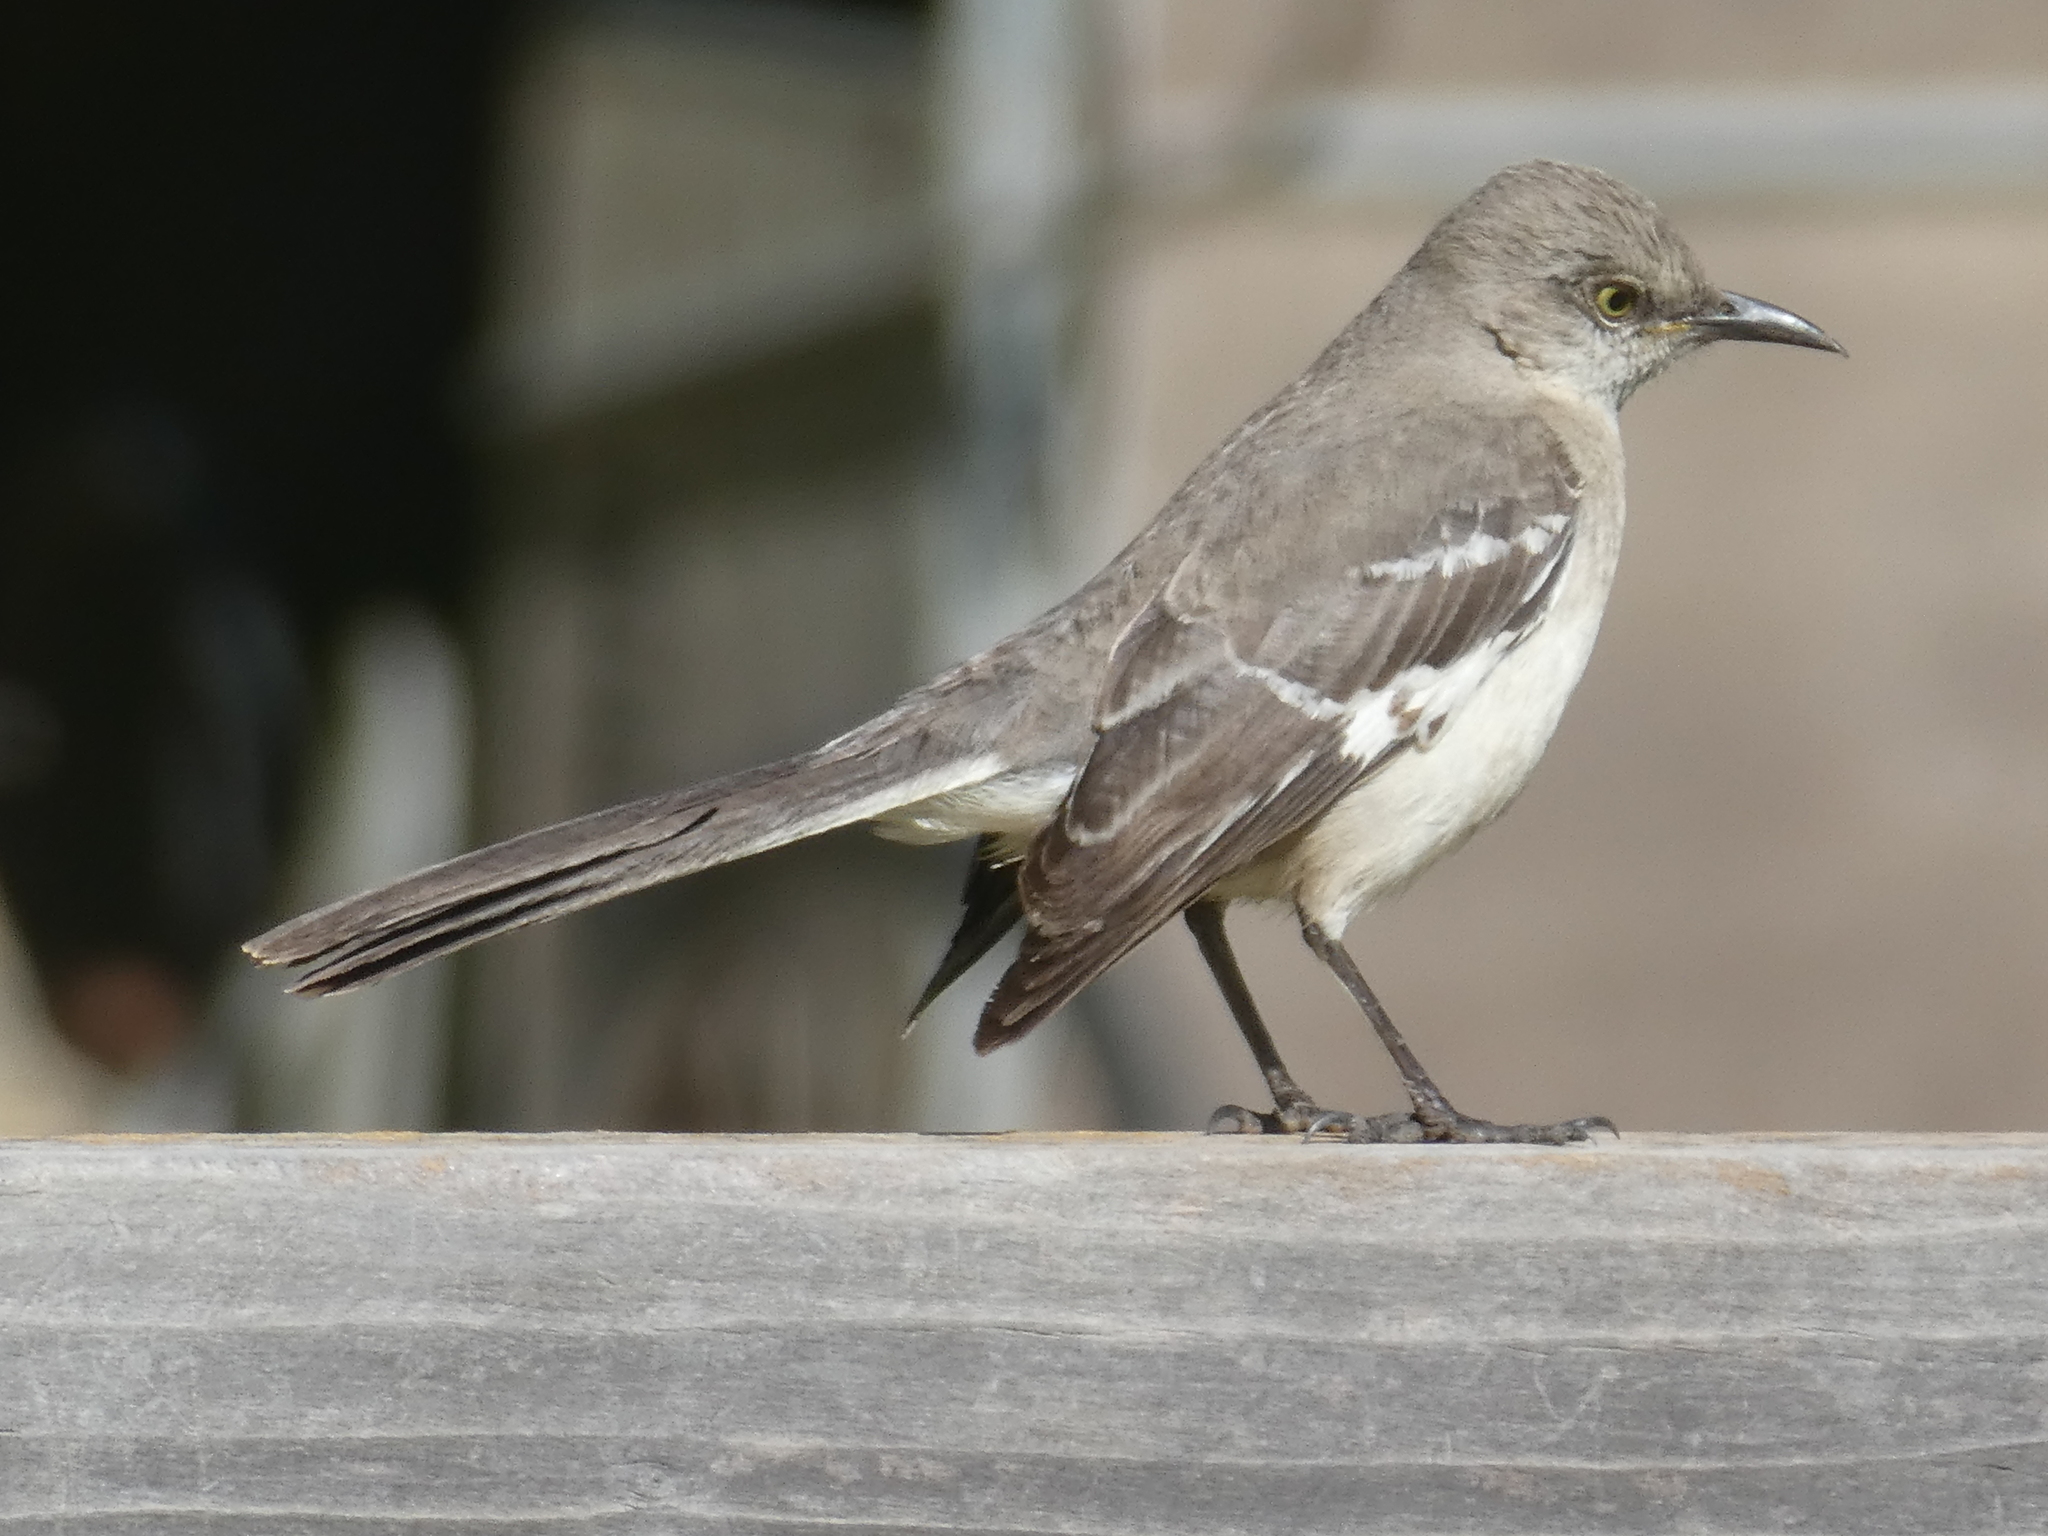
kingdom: Animalia
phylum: Chordata
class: Aves
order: Passeriformes
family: Mimidae
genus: Mimus
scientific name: Mimus polyglottos
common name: Northern mockingbird
